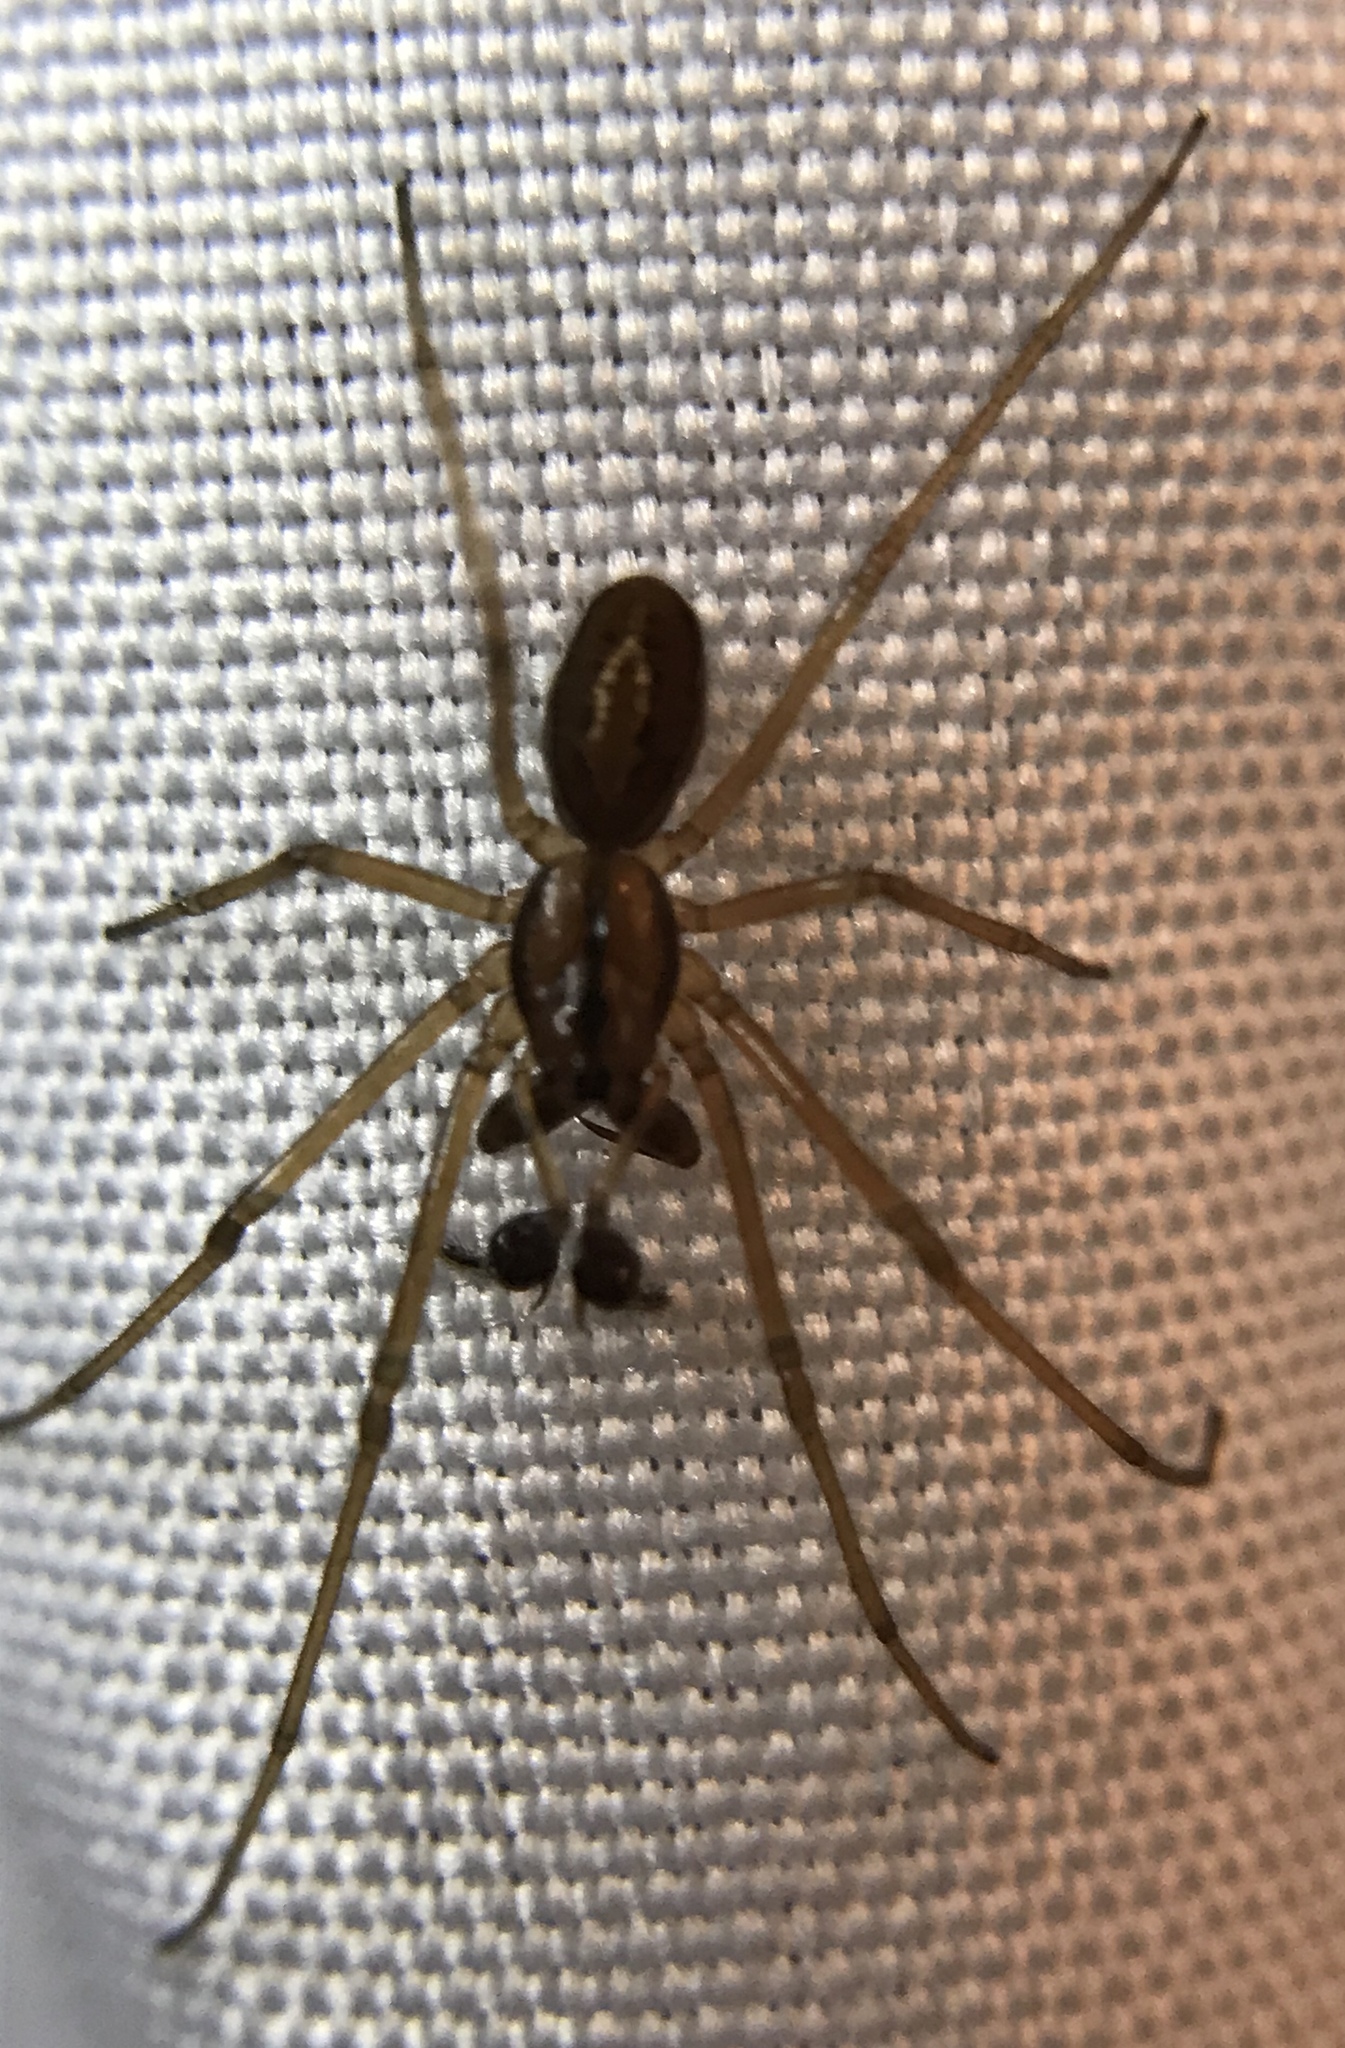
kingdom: Animalia
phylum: Arthropoda
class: Arachnida
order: Araneae
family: Tetragnathidae
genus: Pachygnatha
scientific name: Pachygnatha tristriata
